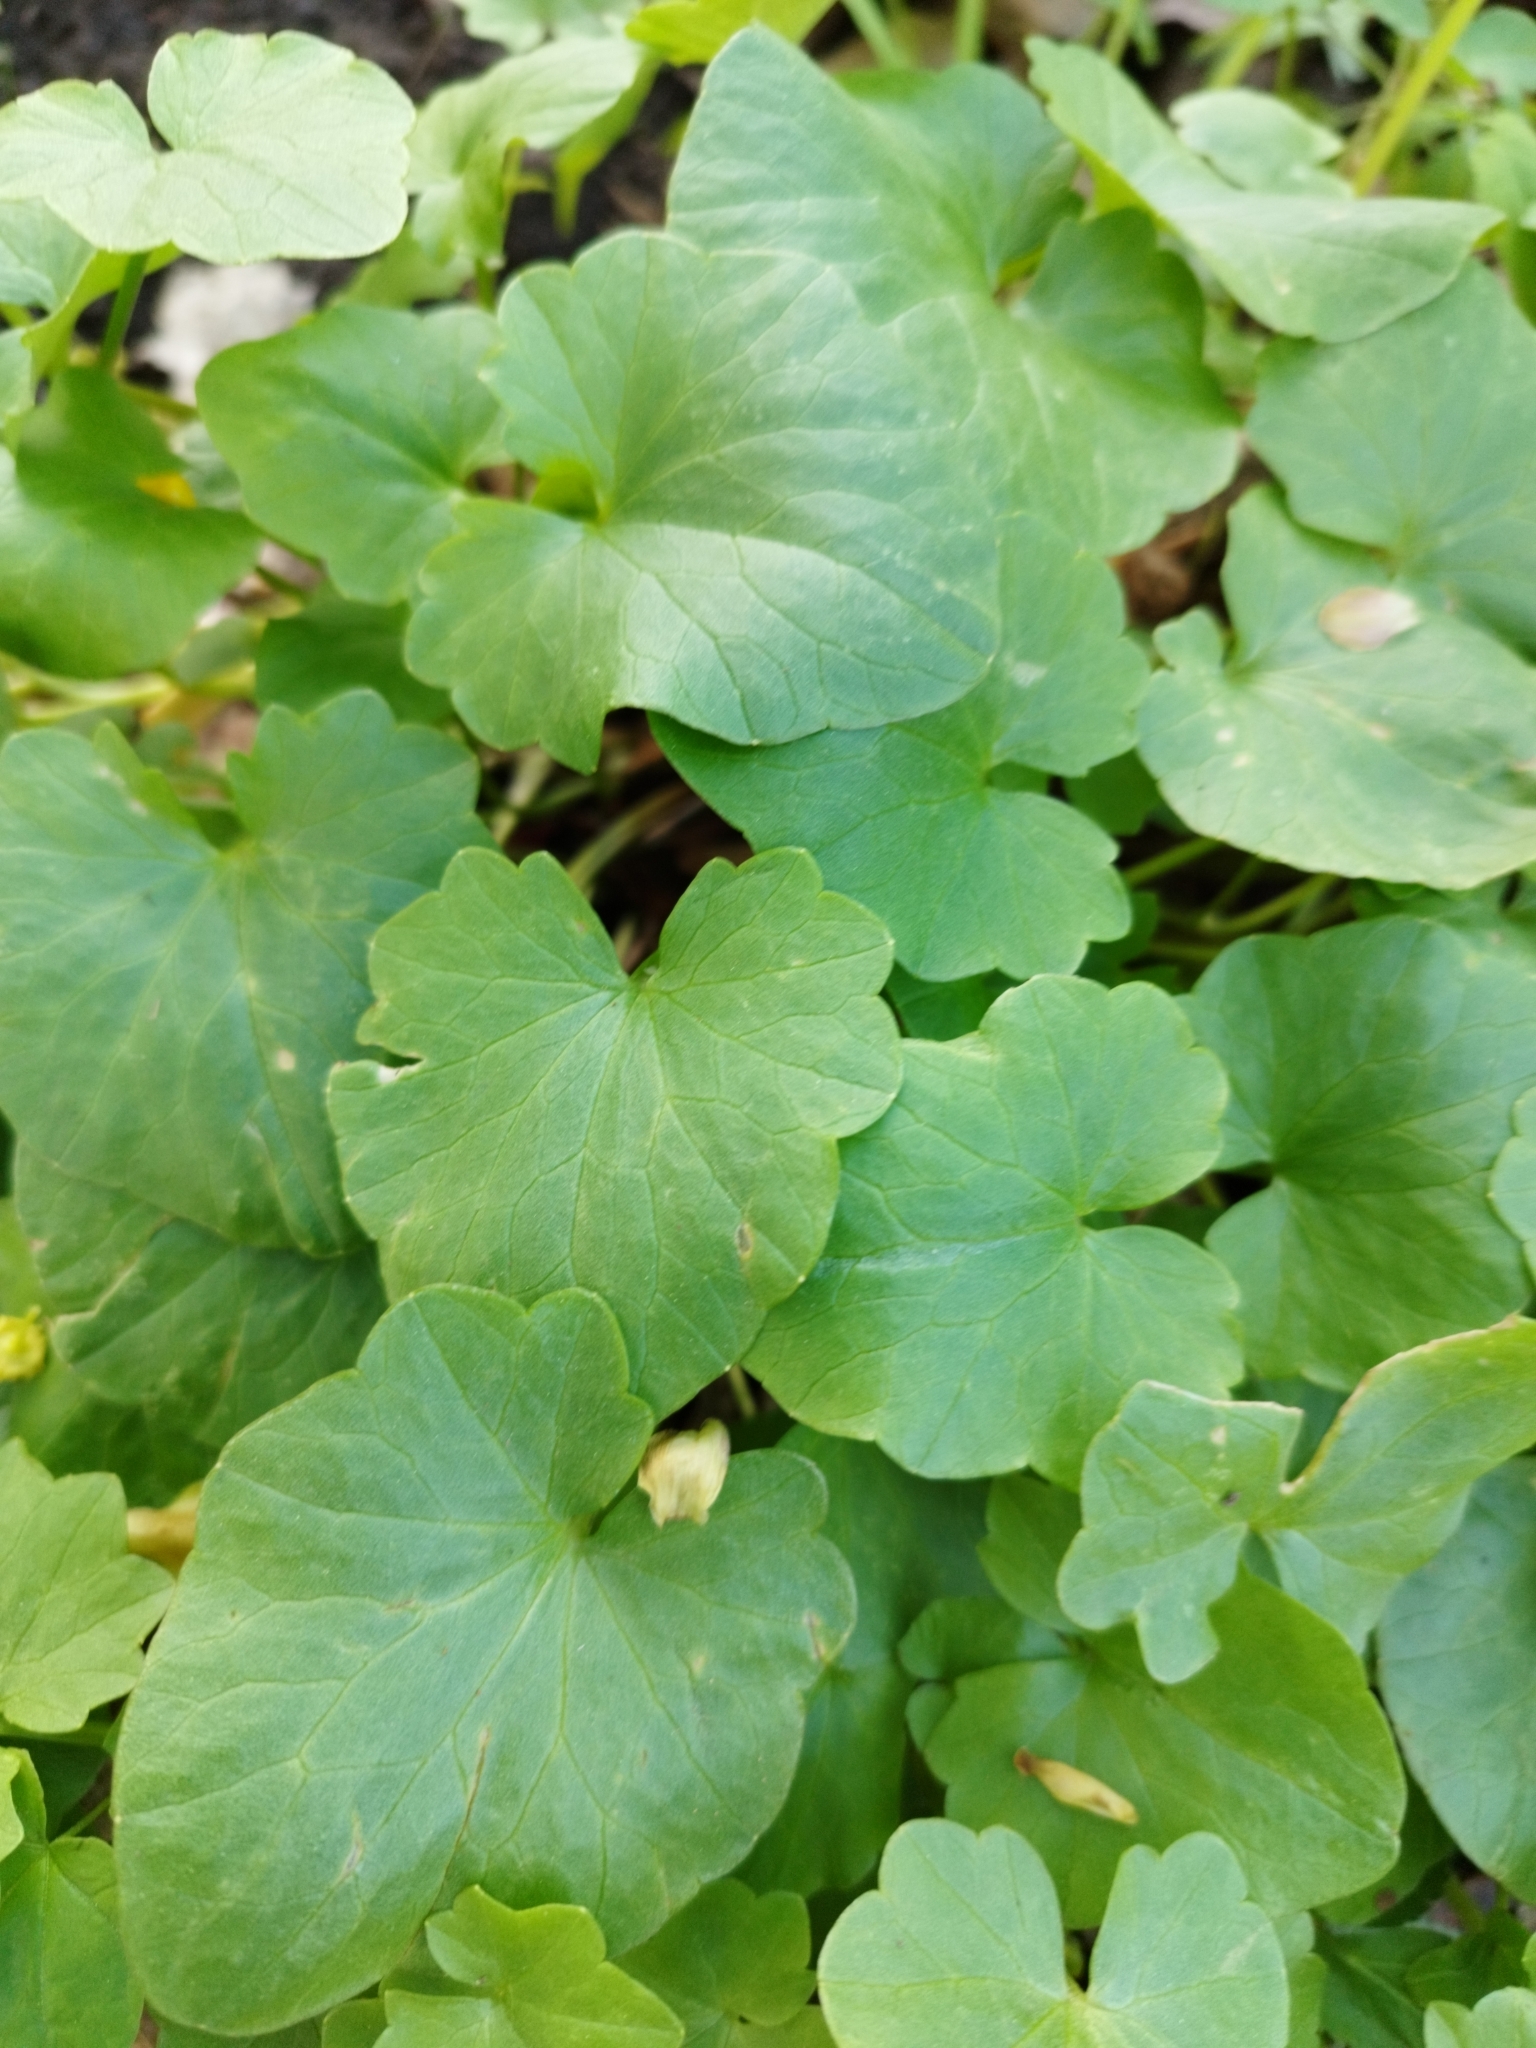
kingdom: Plantae
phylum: Tracheophyta
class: Magnoliopsida
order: Ranunculales
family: Ranunculaceae
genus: Ficaria
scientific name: Ficaria verna
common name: Lesser celandine
